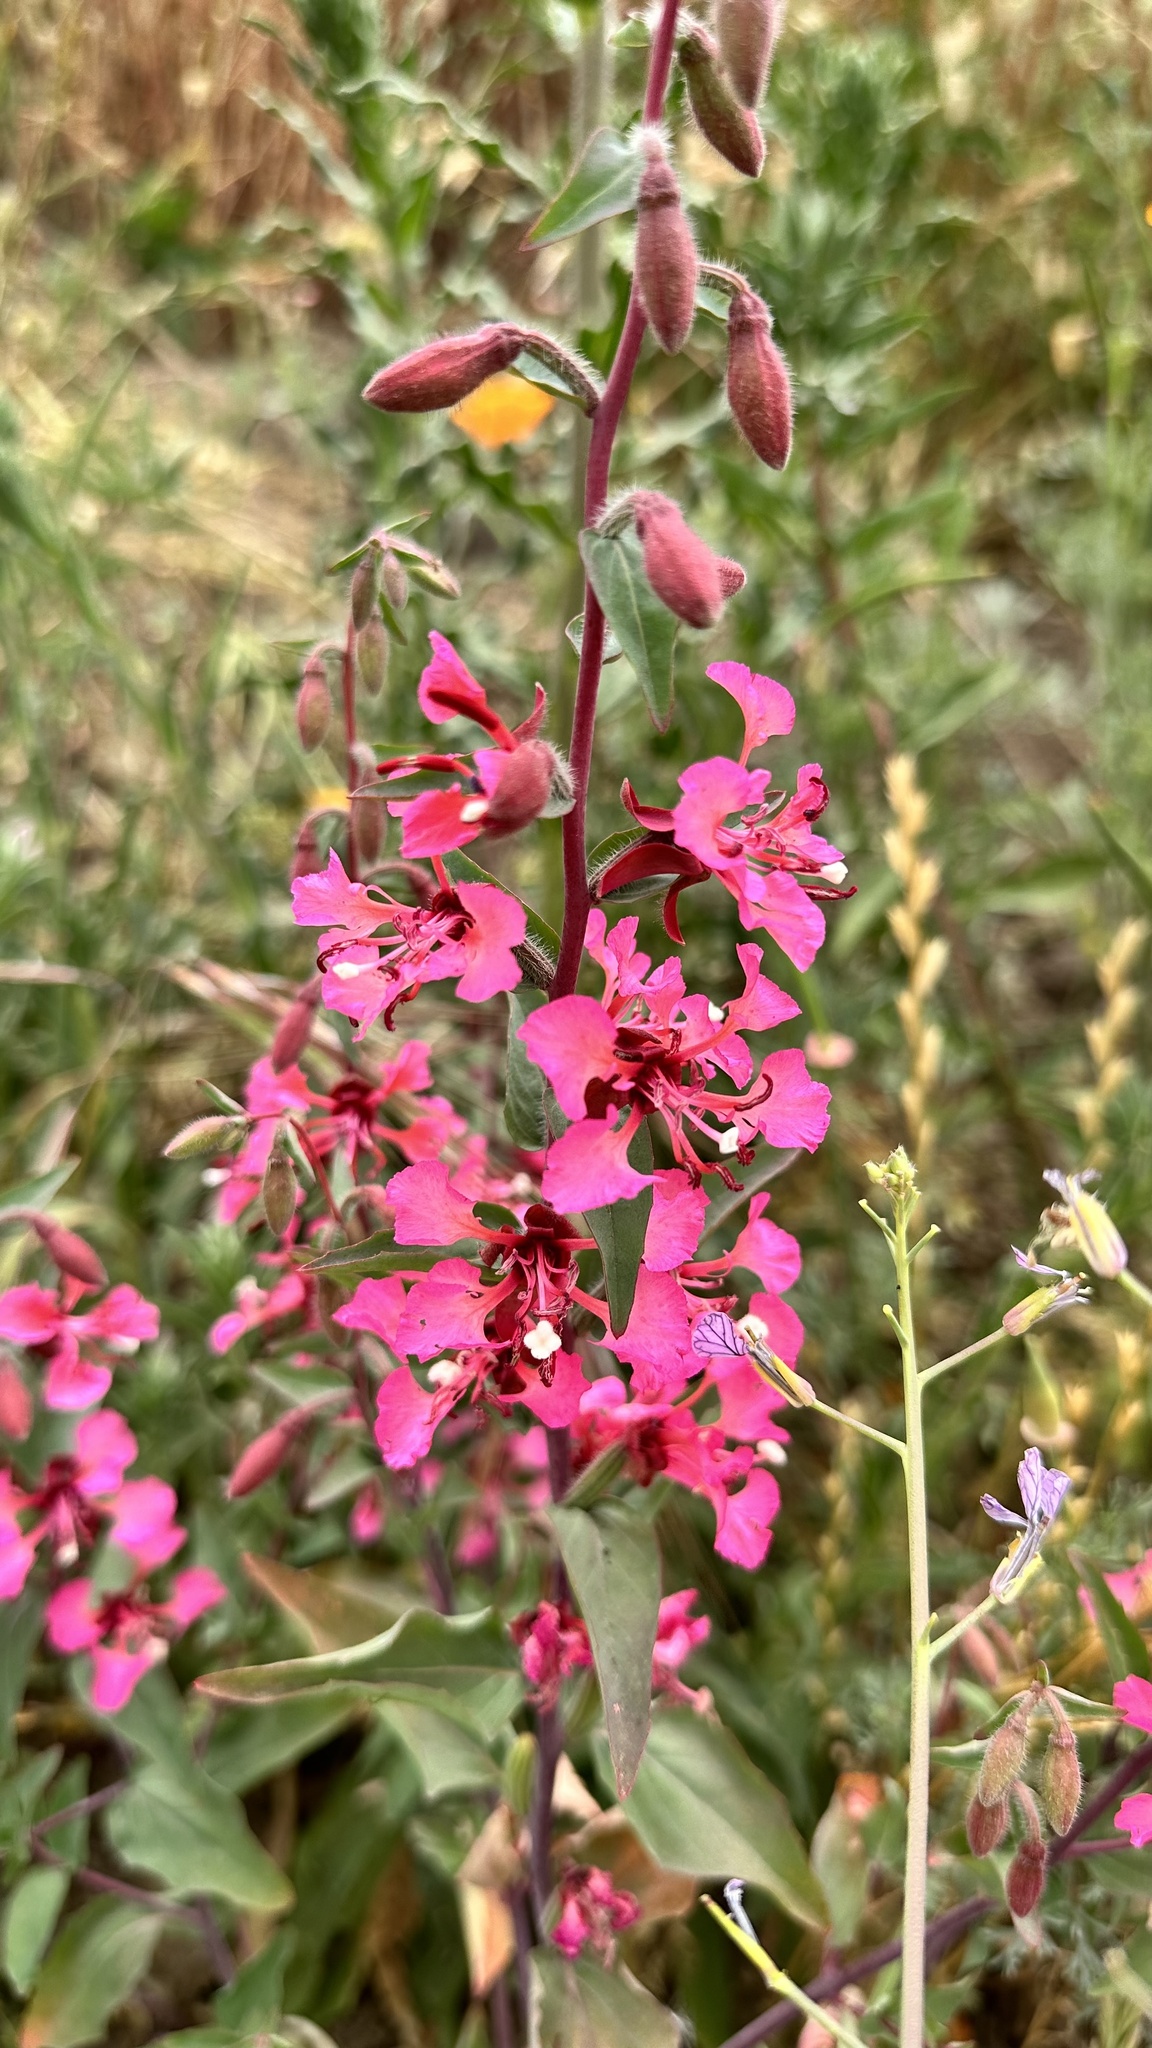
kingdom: Plantae
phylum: Tracheophyta
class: Magnoliopsida
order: Myrtales
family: Onagraceae
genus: Clarkia
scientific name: Clarkia unguiculata
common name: Clarkia
